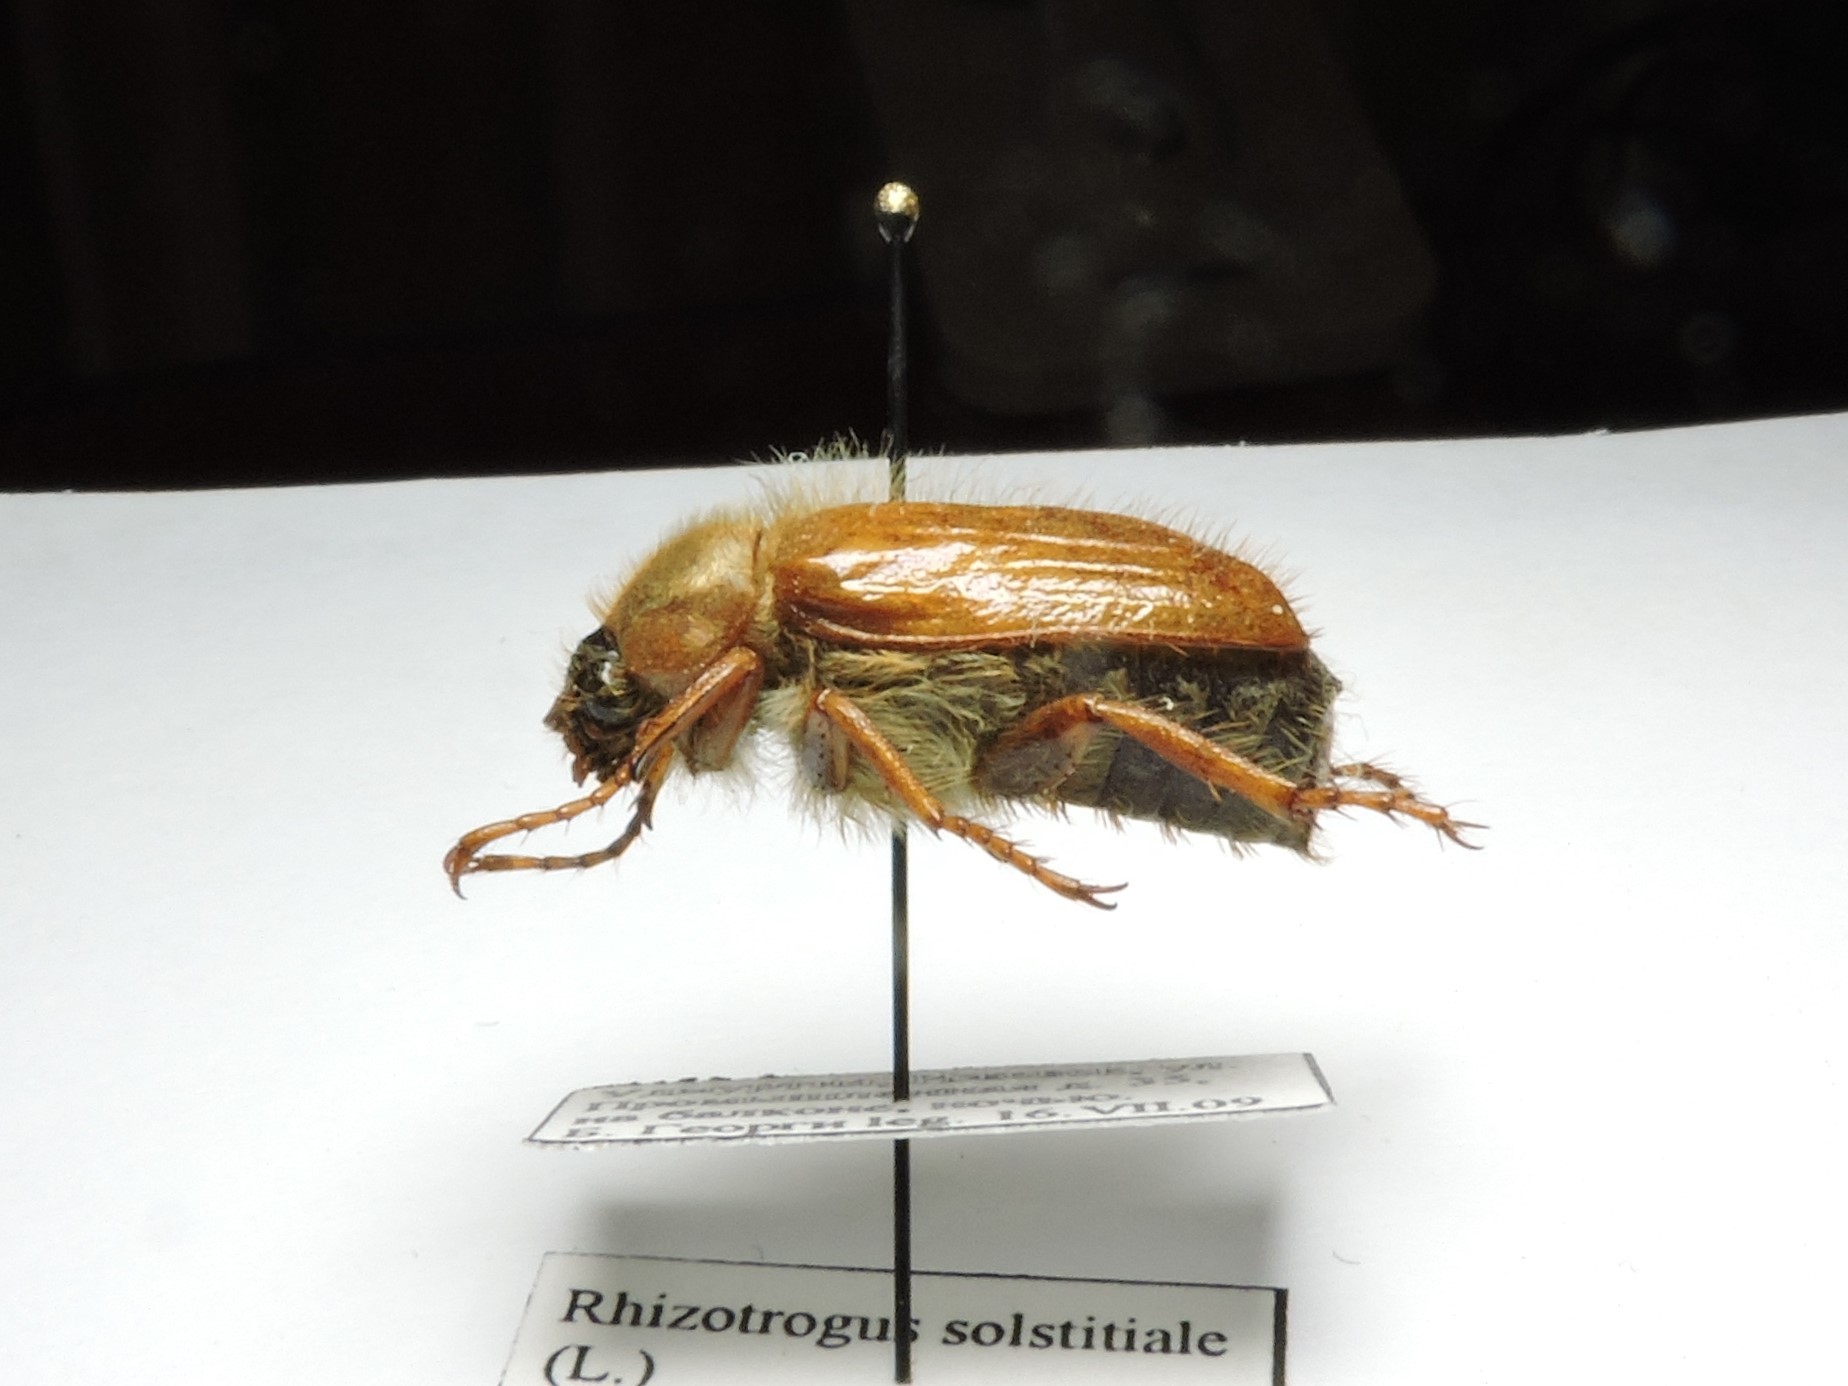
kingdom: Animalia
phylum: Arthropoda
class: Insecta
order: Coleoptera
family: Scarabaeidae
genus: Amphimallon
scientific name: Amphimallon solstitiale
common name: Summer chafer
